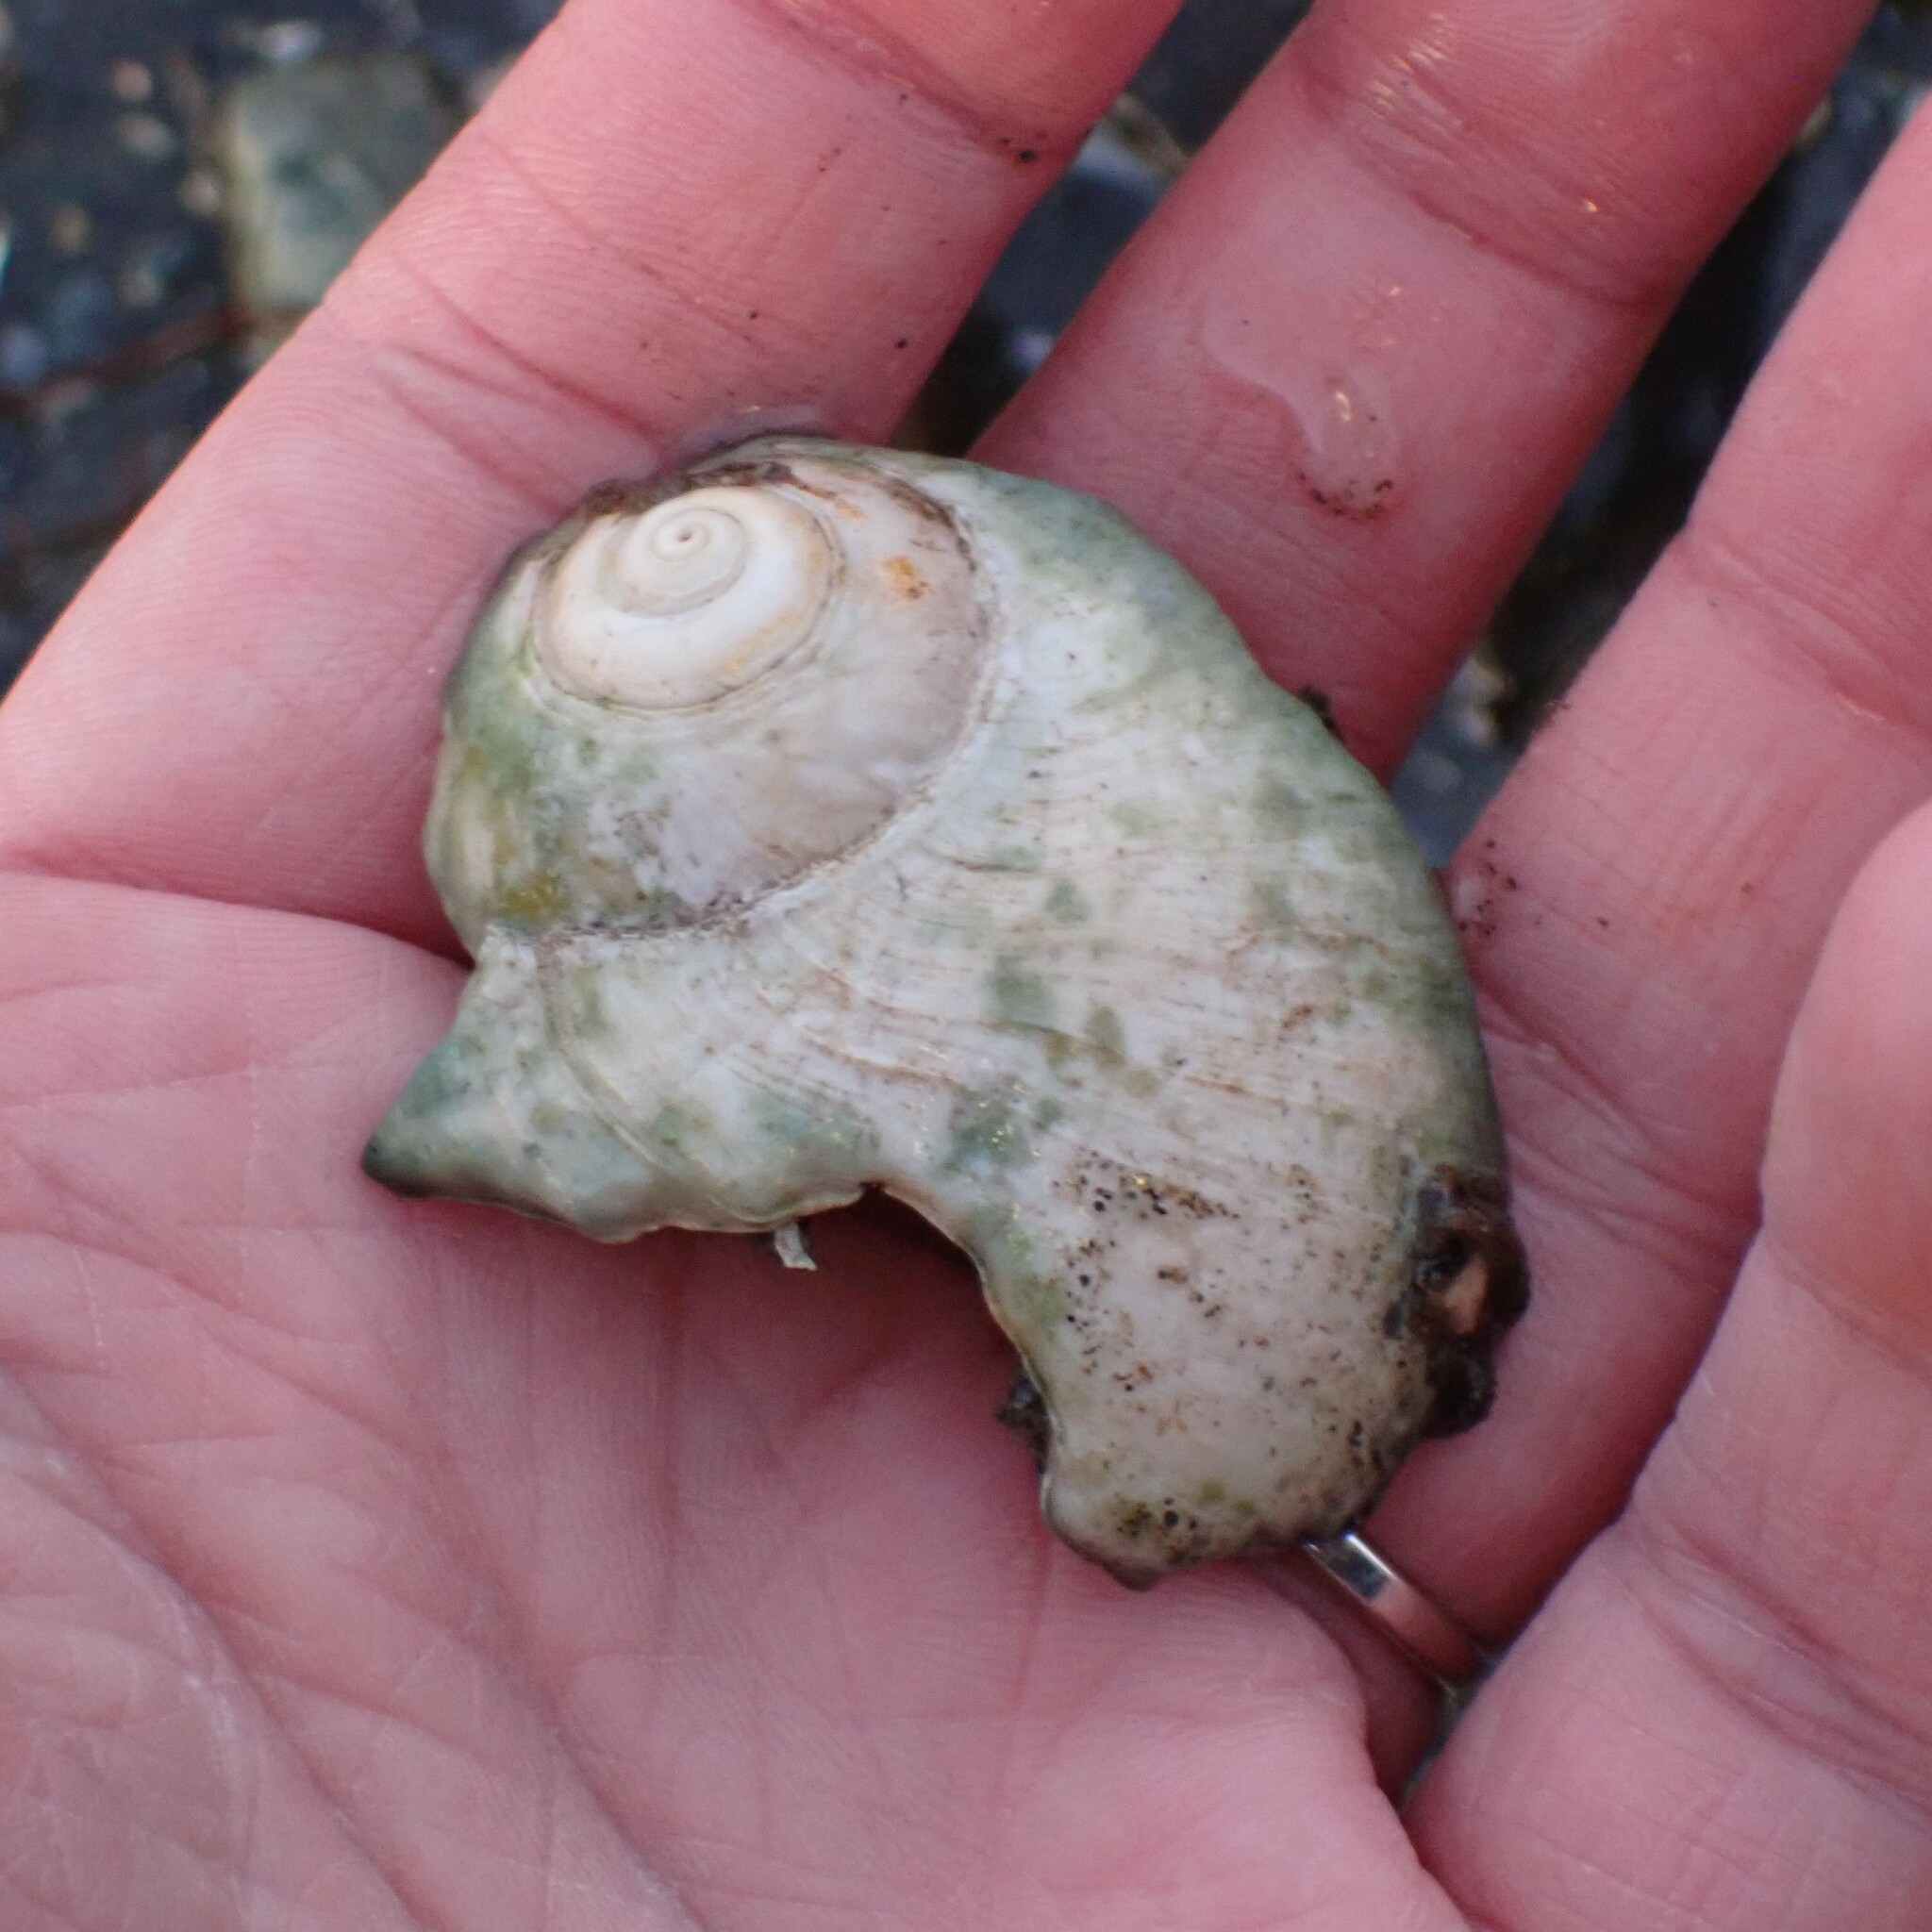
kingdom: Animalia
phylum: Mollusca
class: Gastropoda
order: Littorinimorpha
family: Naticidae
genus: Neverita
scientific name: Neverita lewisii
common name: Lewis' moonsnail
